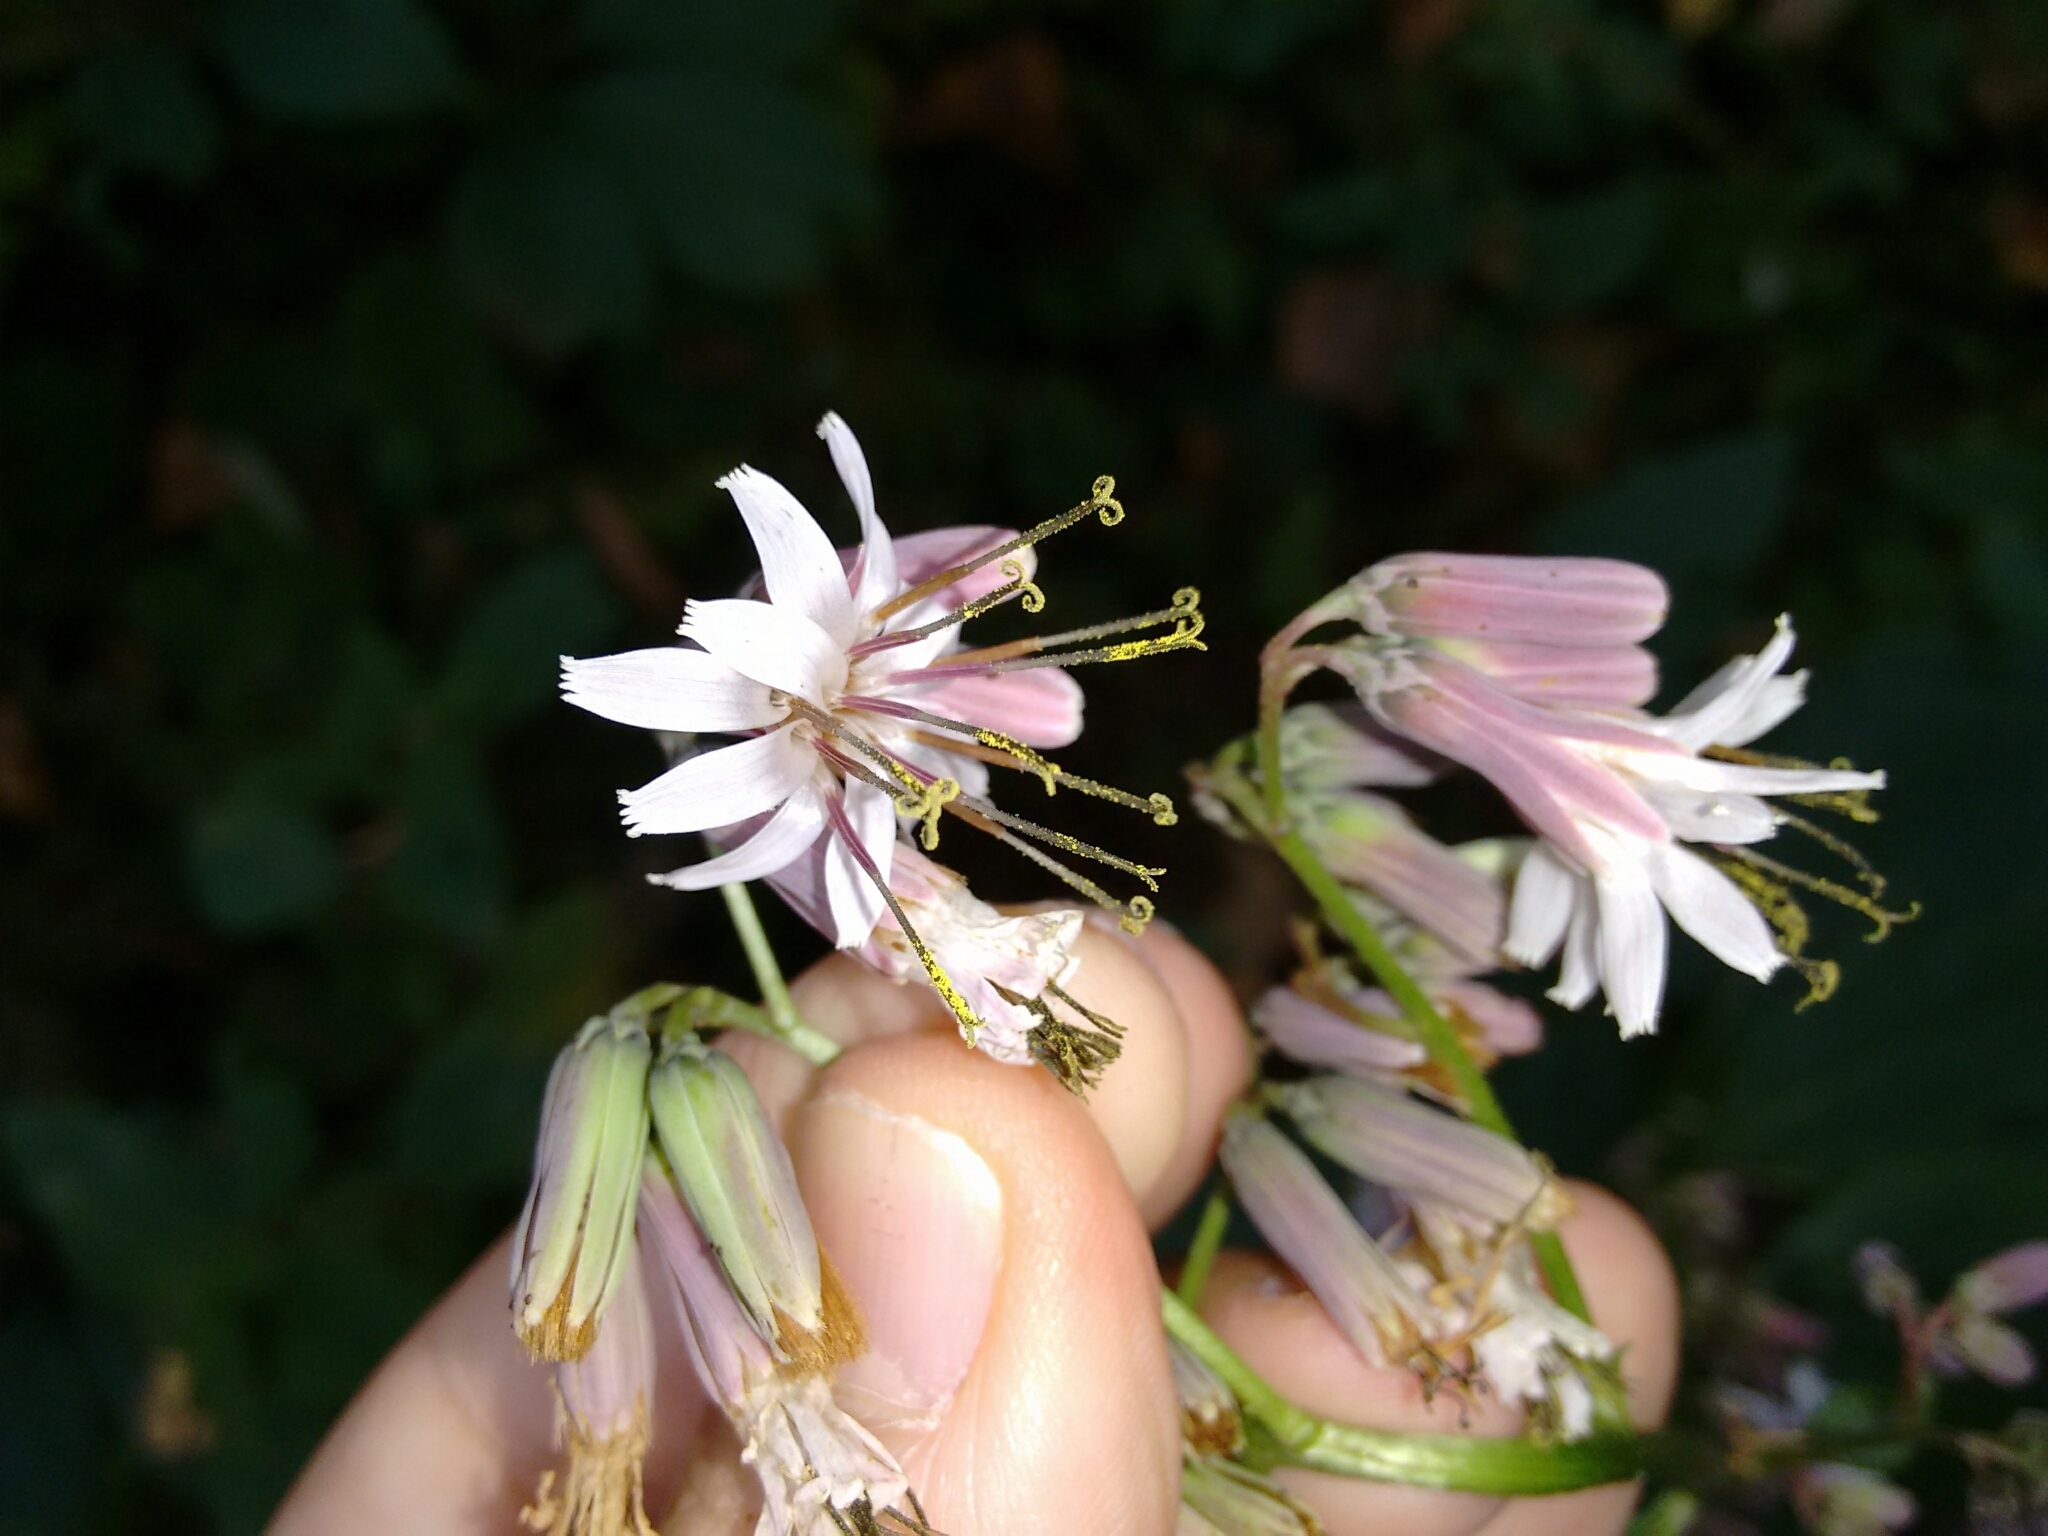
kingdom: Plantae
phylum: Tracheophyta
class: Magnoliopsida
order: Asterales
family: Asteraceae
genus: Nabalus
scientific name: Nabalus albus
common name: White rattlesnakeroot
